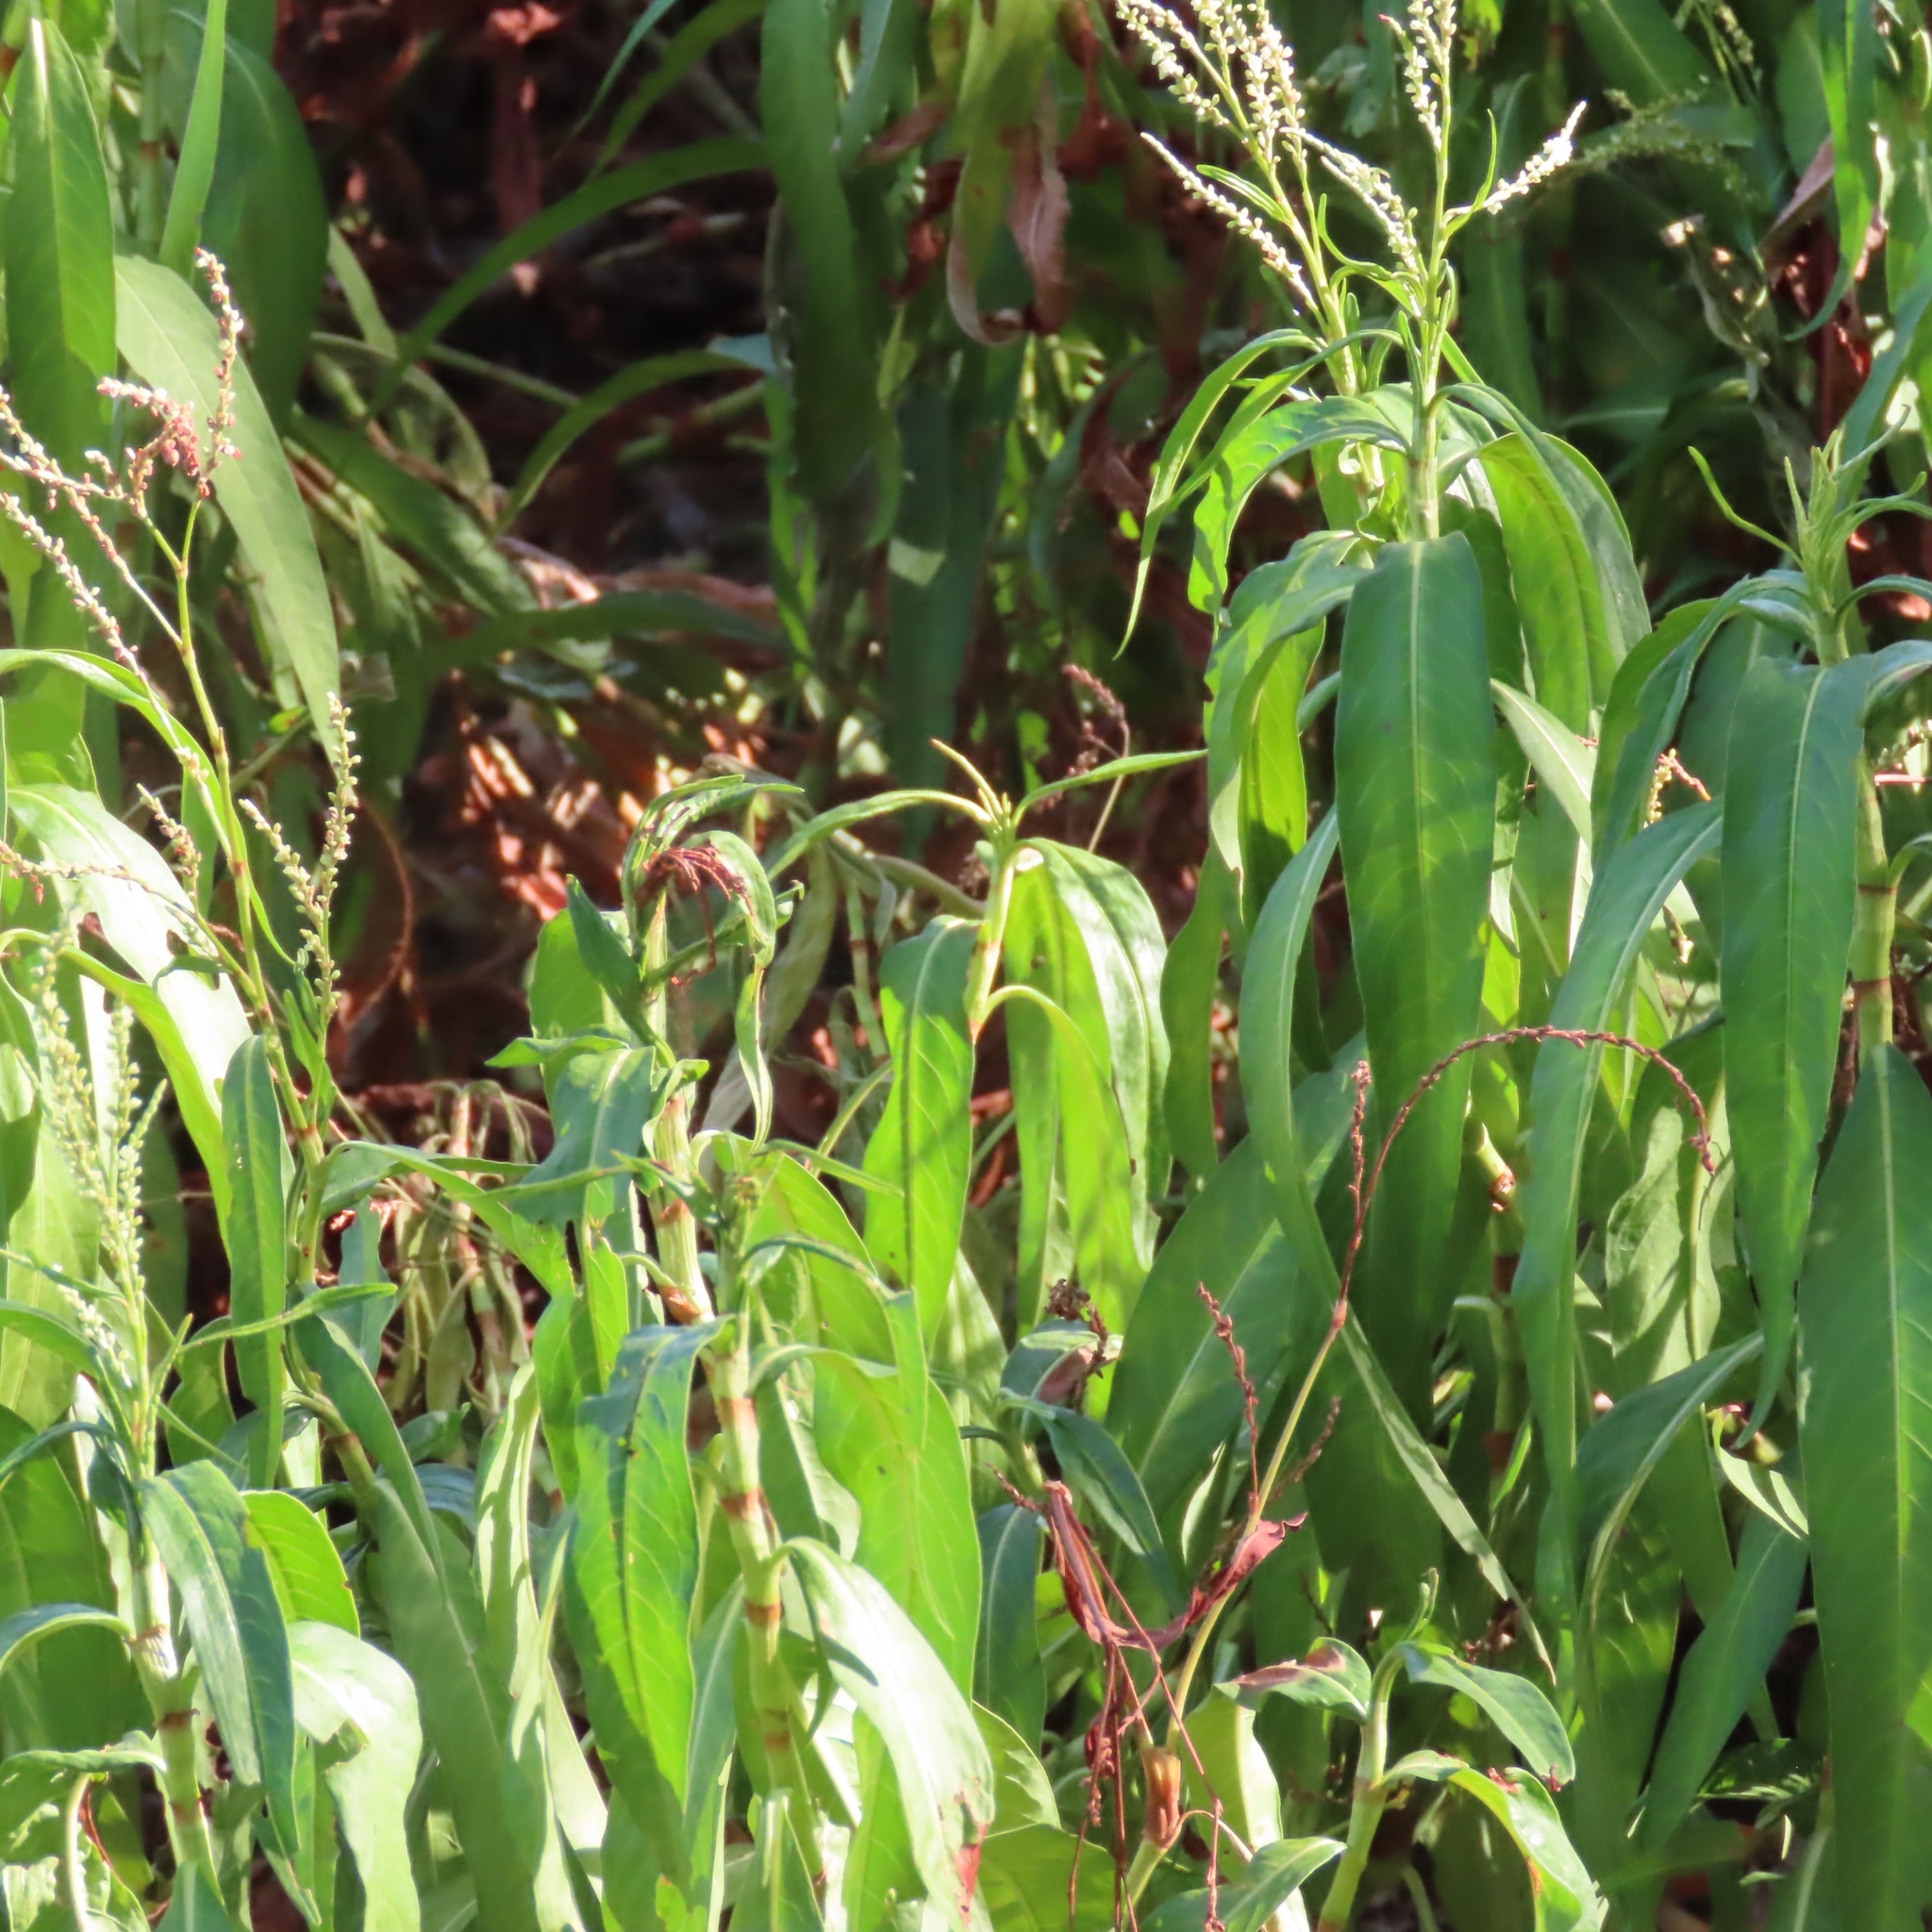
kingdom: Plantae
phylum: Tracheophyta
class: Magnoliopsida
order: Caryophyllales
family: Polygonaceae
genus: Persicaria
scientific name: Persicaria hydropiperoides
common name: Swamp smartweed
